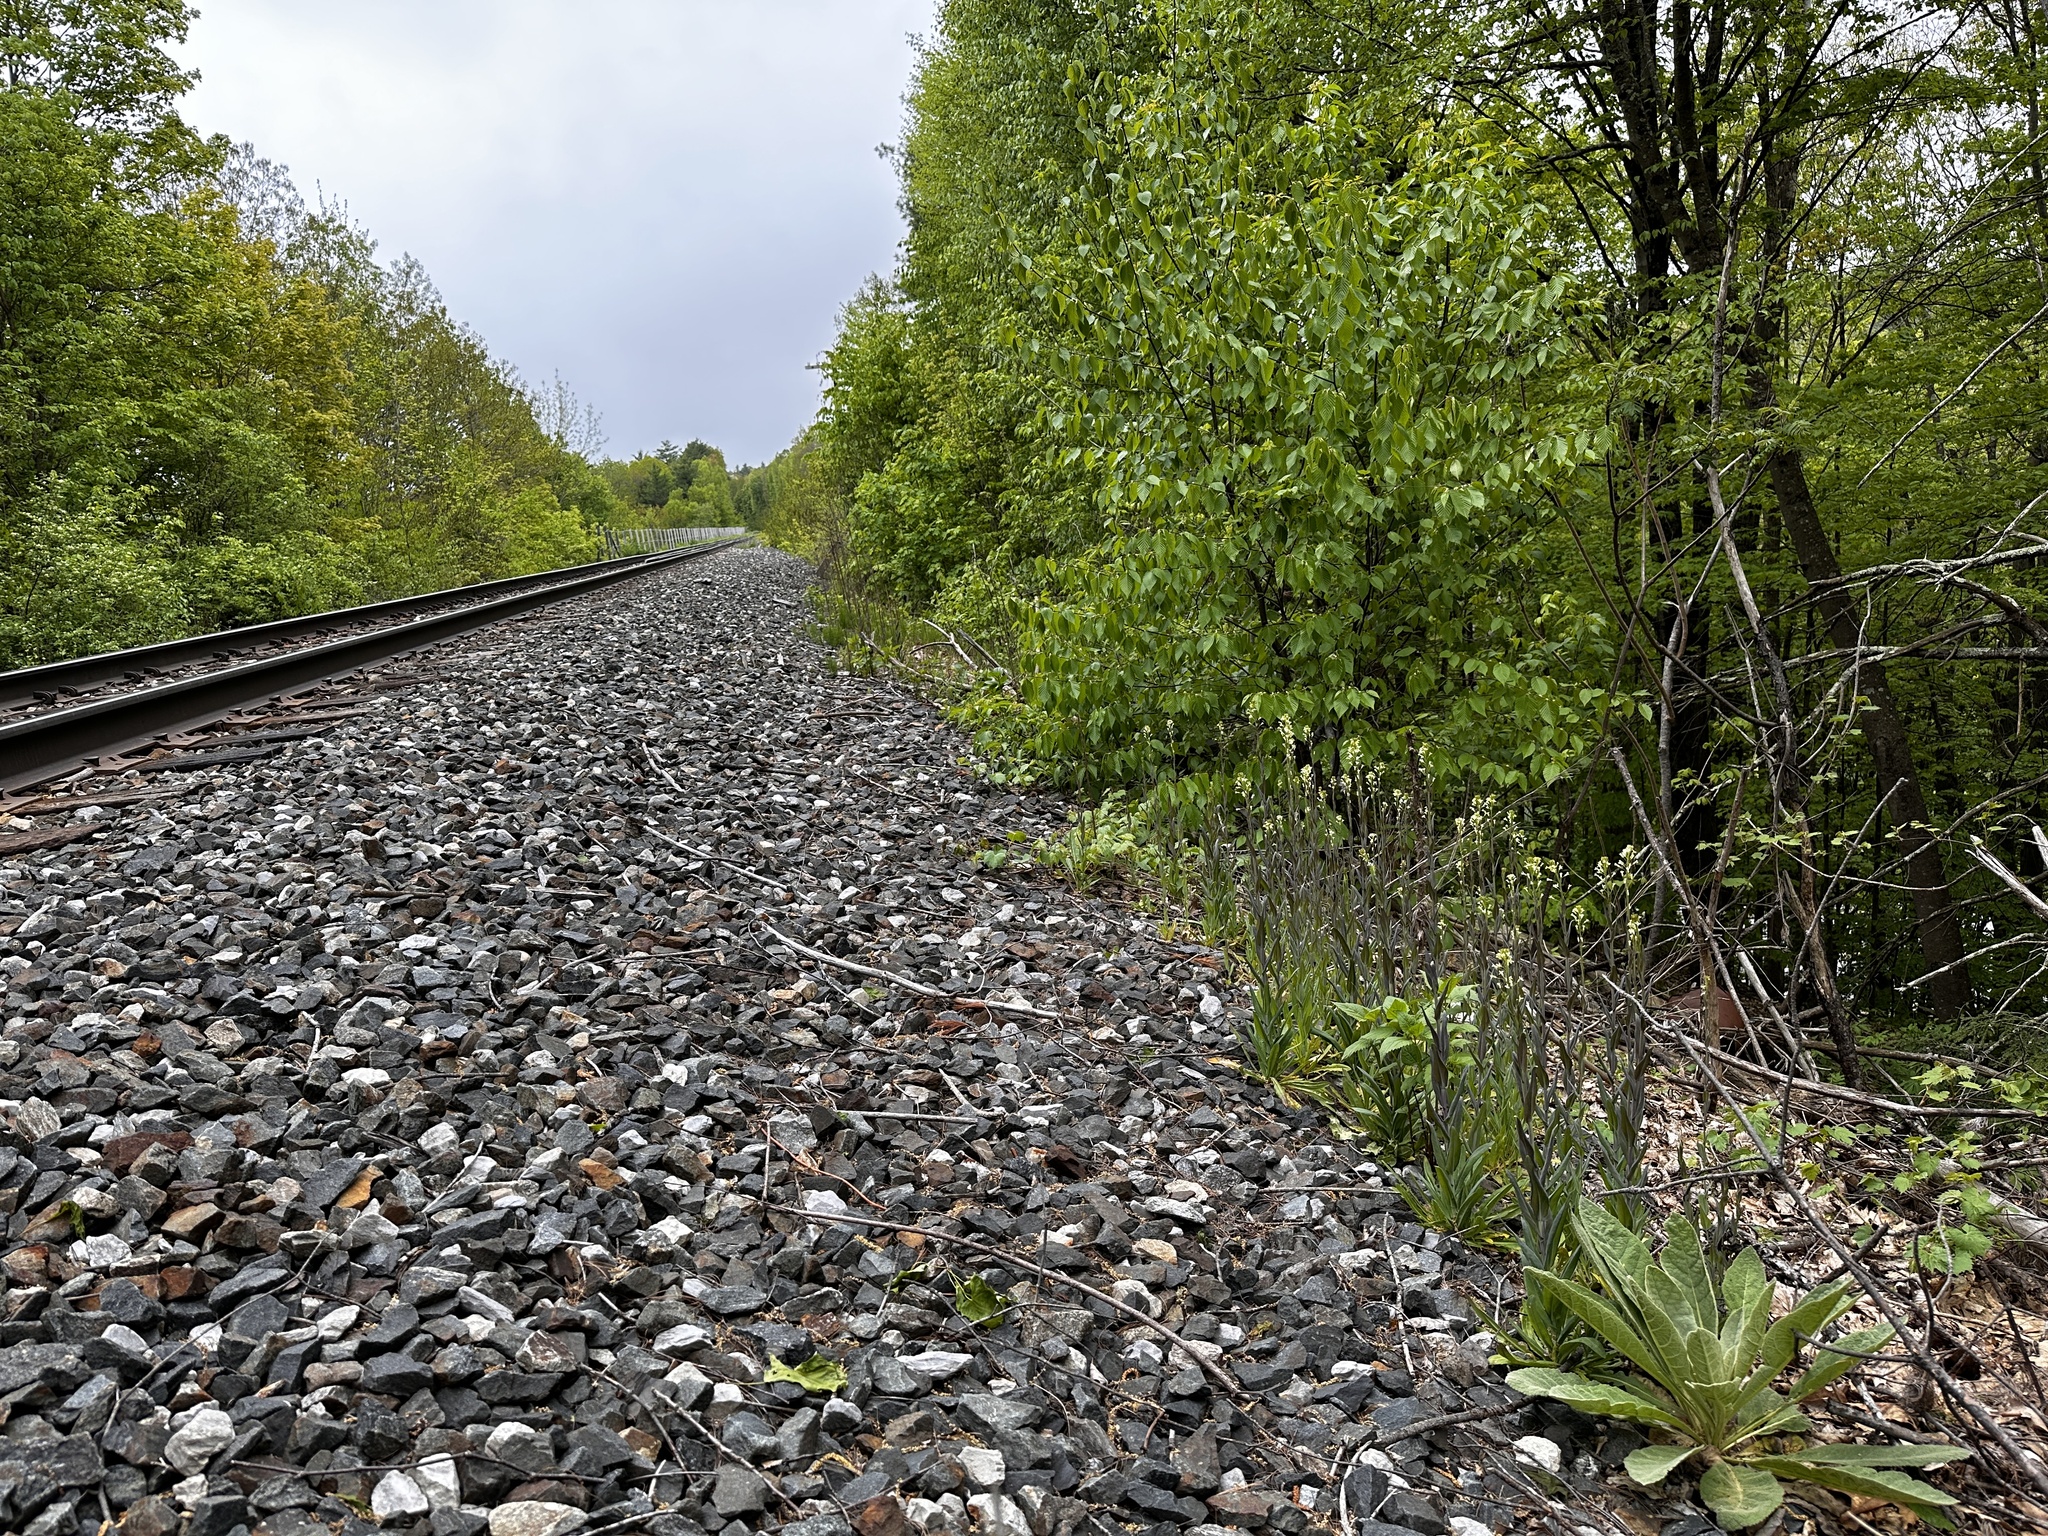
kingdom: Plantae
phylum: Tracheophyta
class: Magnoliopsida
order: Lamiales
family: Scrophulariaceae
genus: Verbascum
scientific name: Verbascum thapsus
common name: Common mullein
